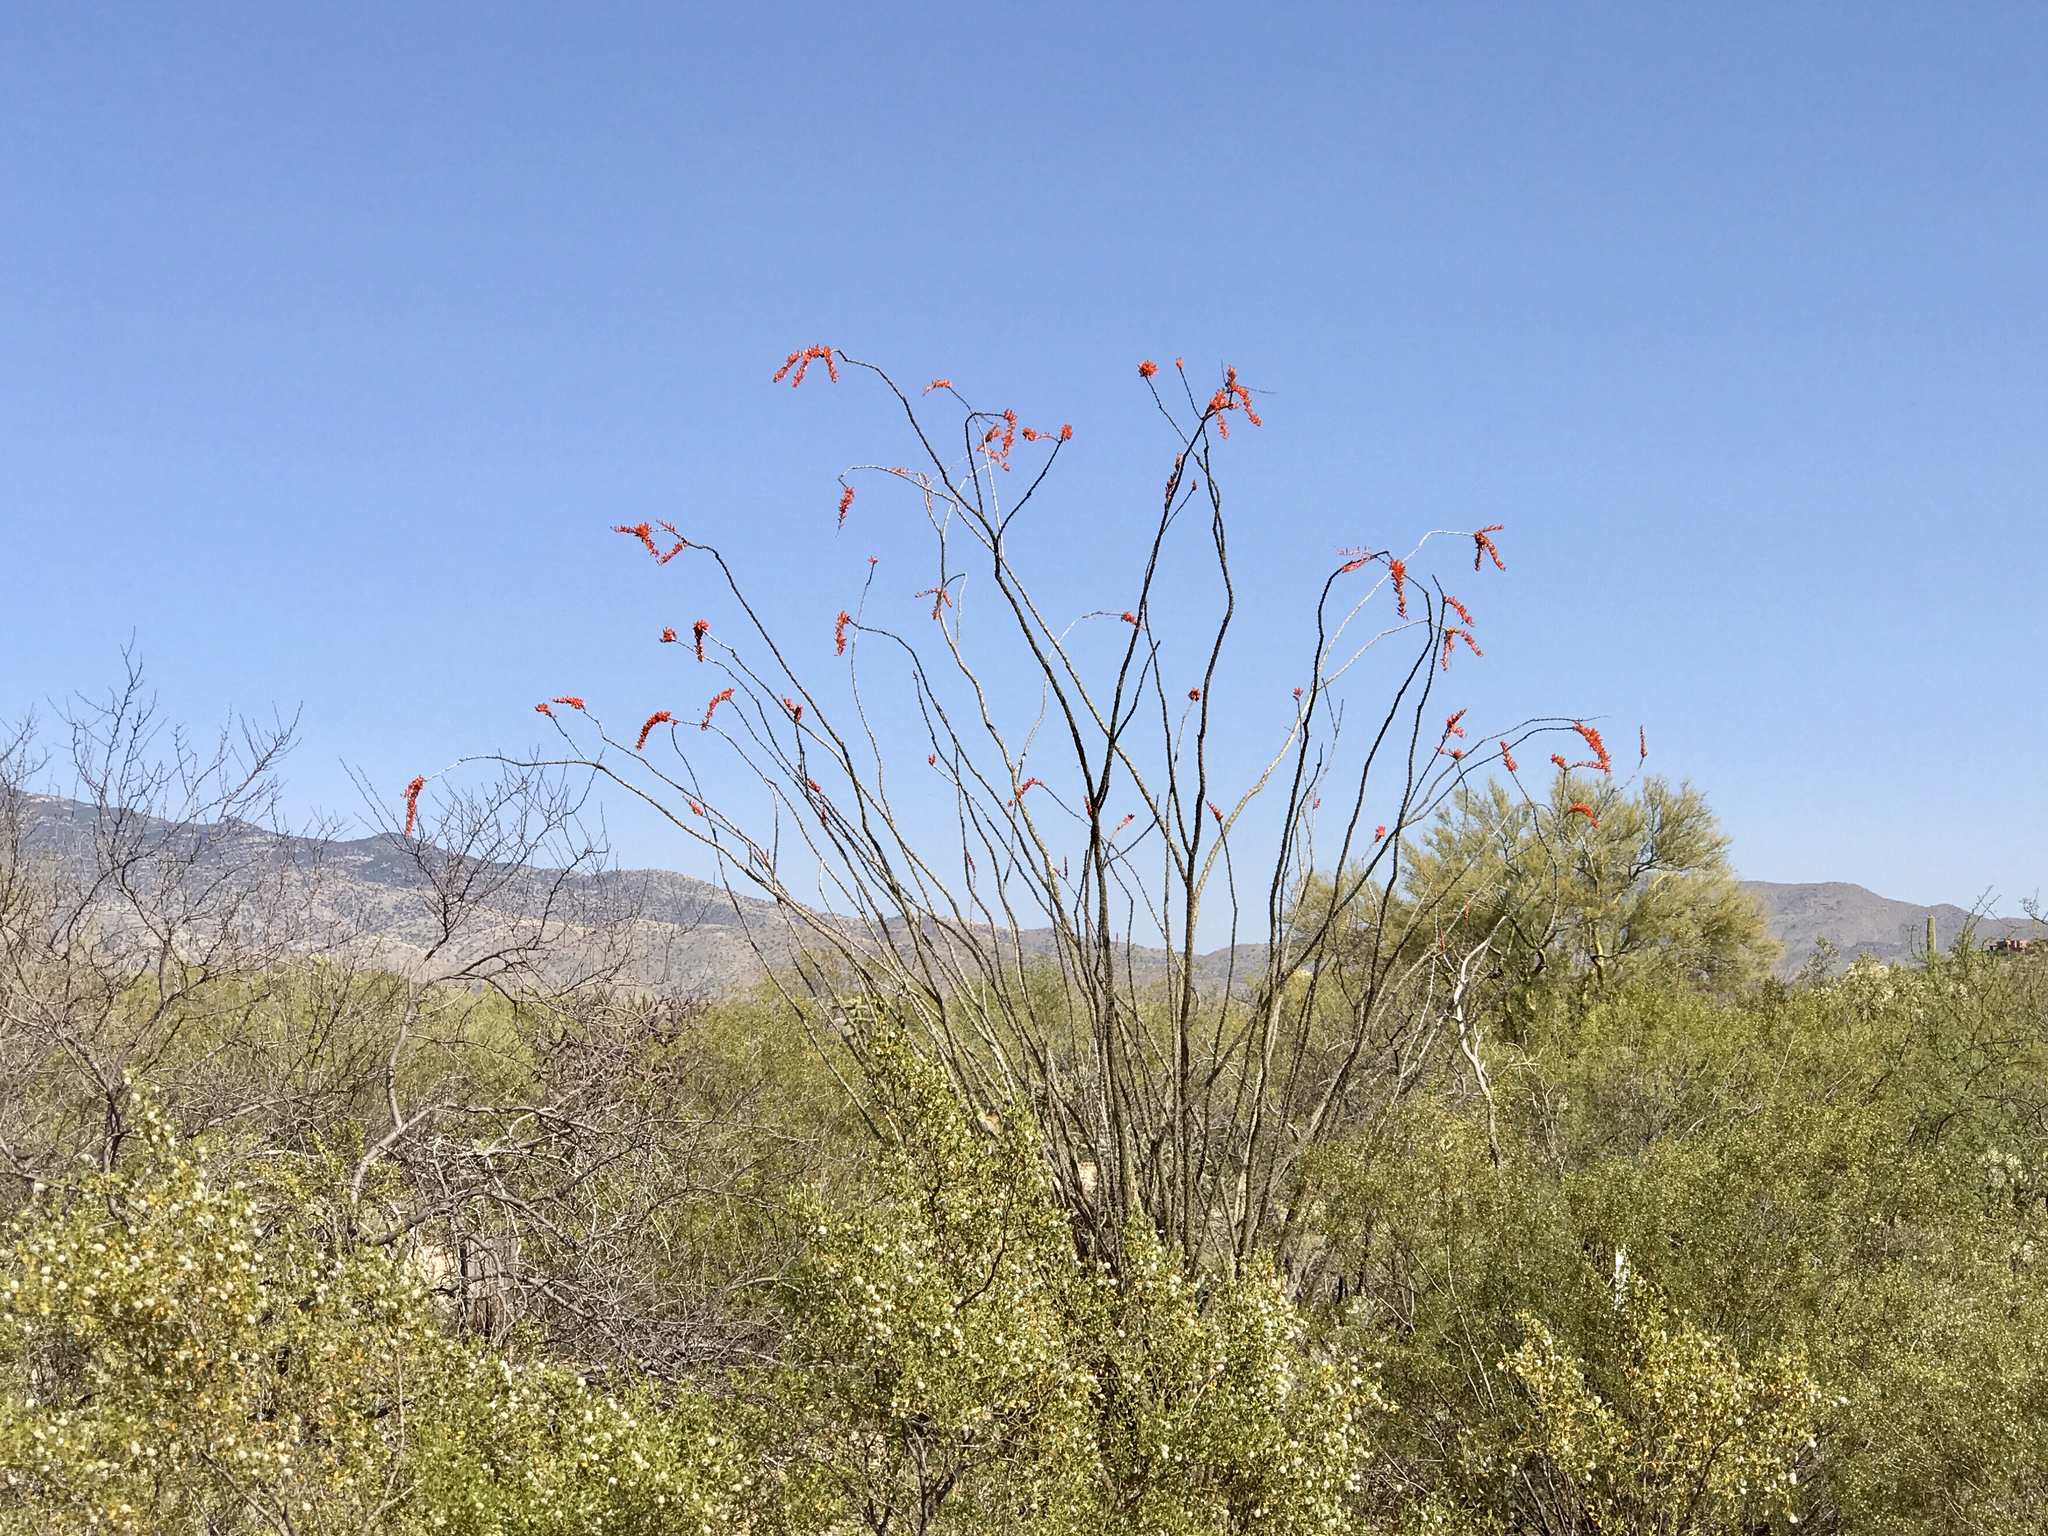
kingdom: Plantae
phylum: Tracheophyta
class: Magnoliopsida
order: Ericales
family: Fouquieriaceae
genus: Fouquieria
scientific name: Fouquieria splendens
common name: Vine-cactus
